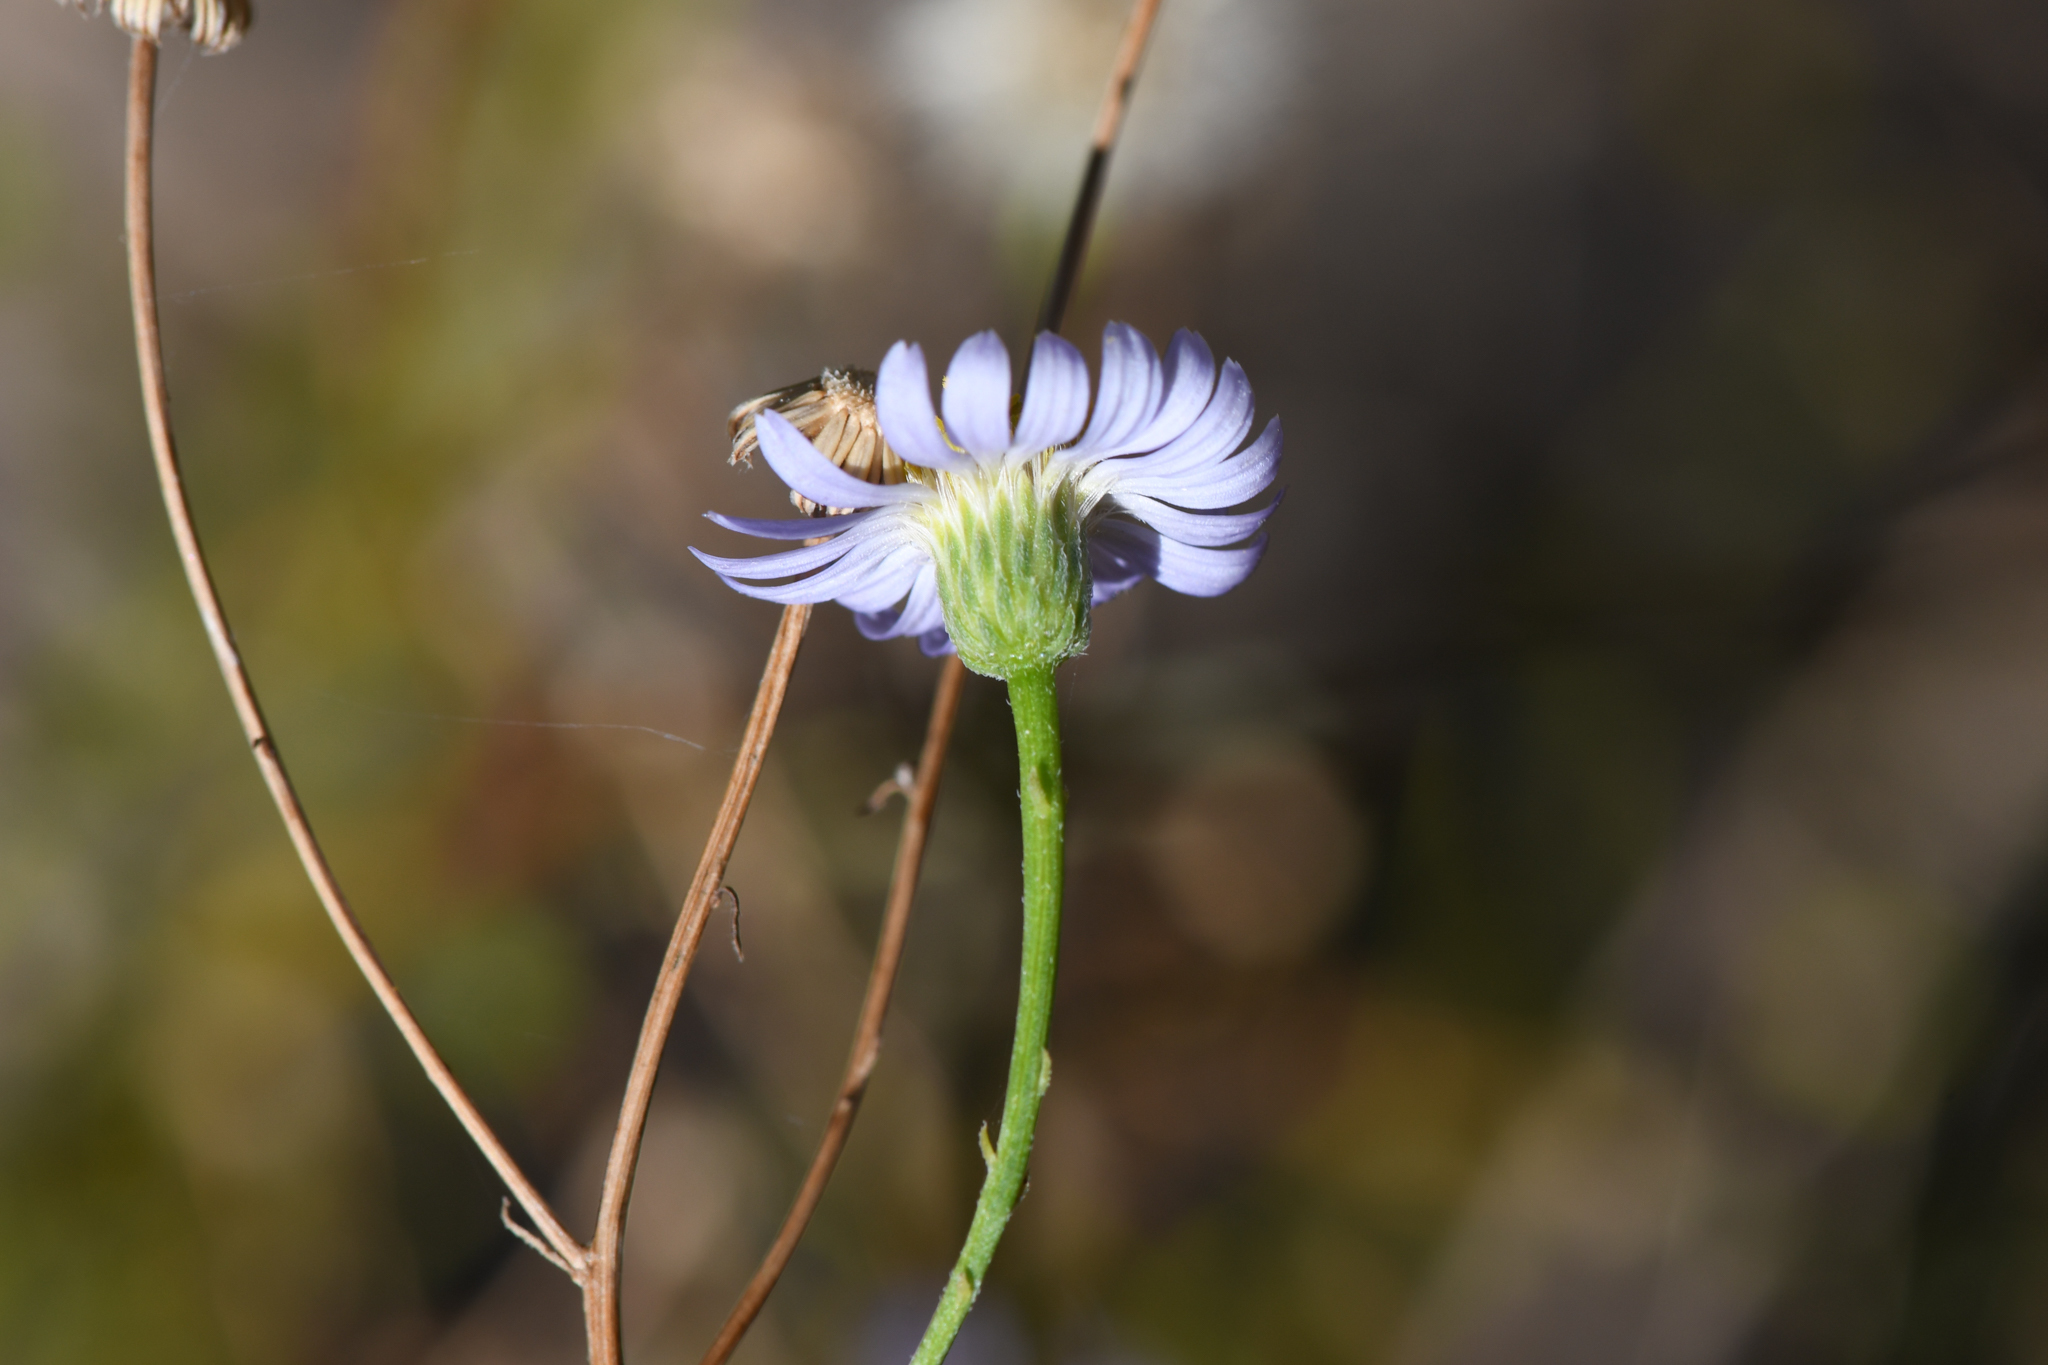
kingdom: Plantae
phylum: Tracheophyta
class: Magnoliopsida
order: Asterales
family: Asteraceae
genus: Erigeron
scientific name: Erigeron foliosus
